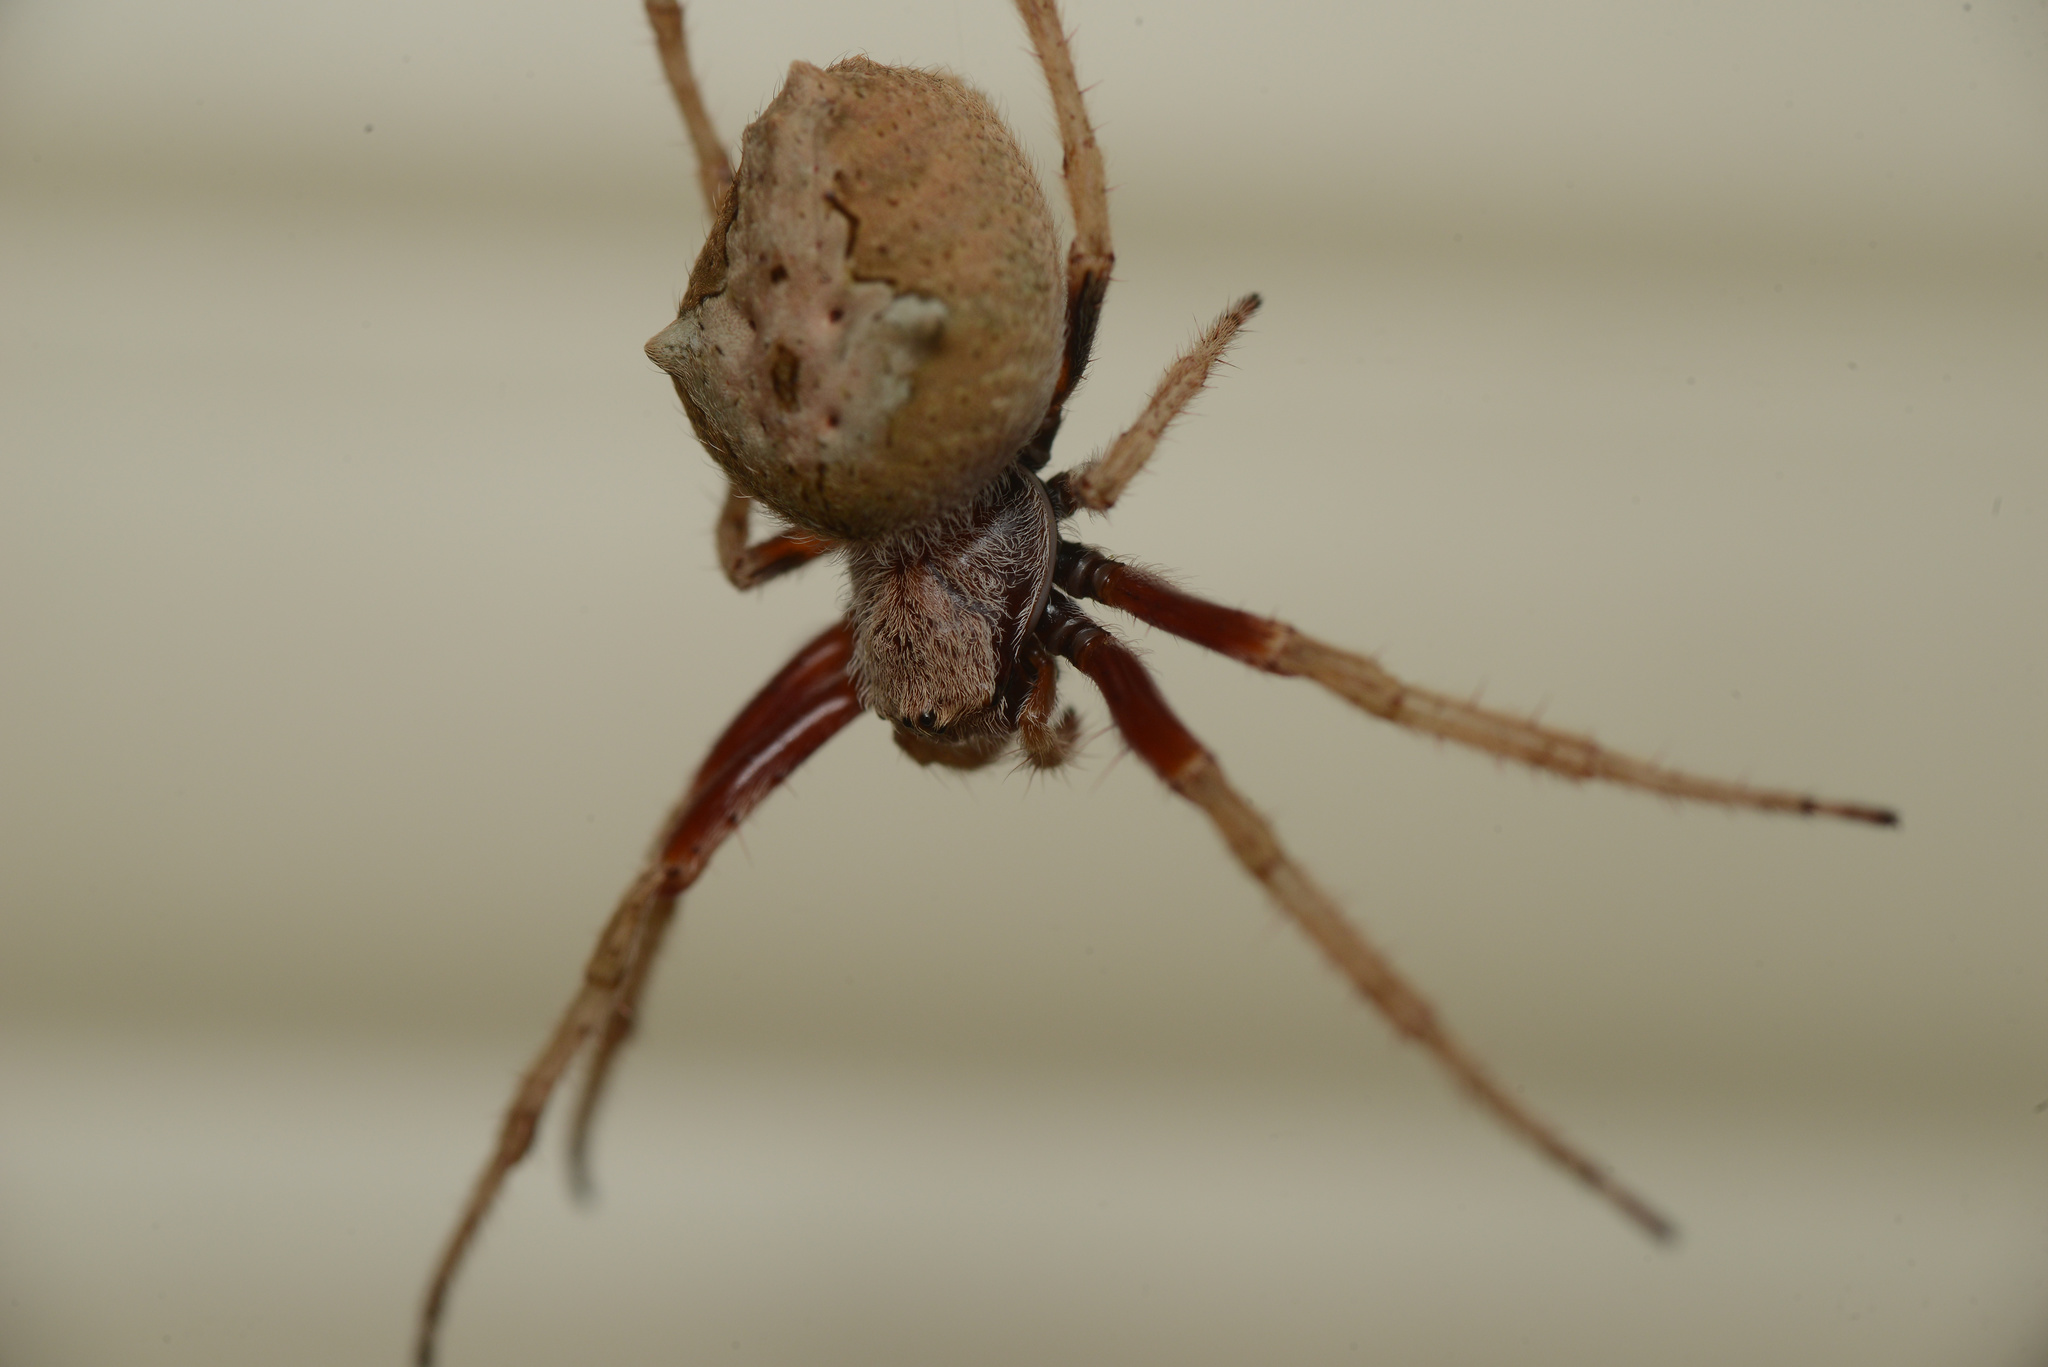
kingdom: Animalia
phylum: Arthropoda
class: Arachnida
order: Araneae
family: Araneidae
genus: Eriophora
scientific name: Eriophora pustulosa
